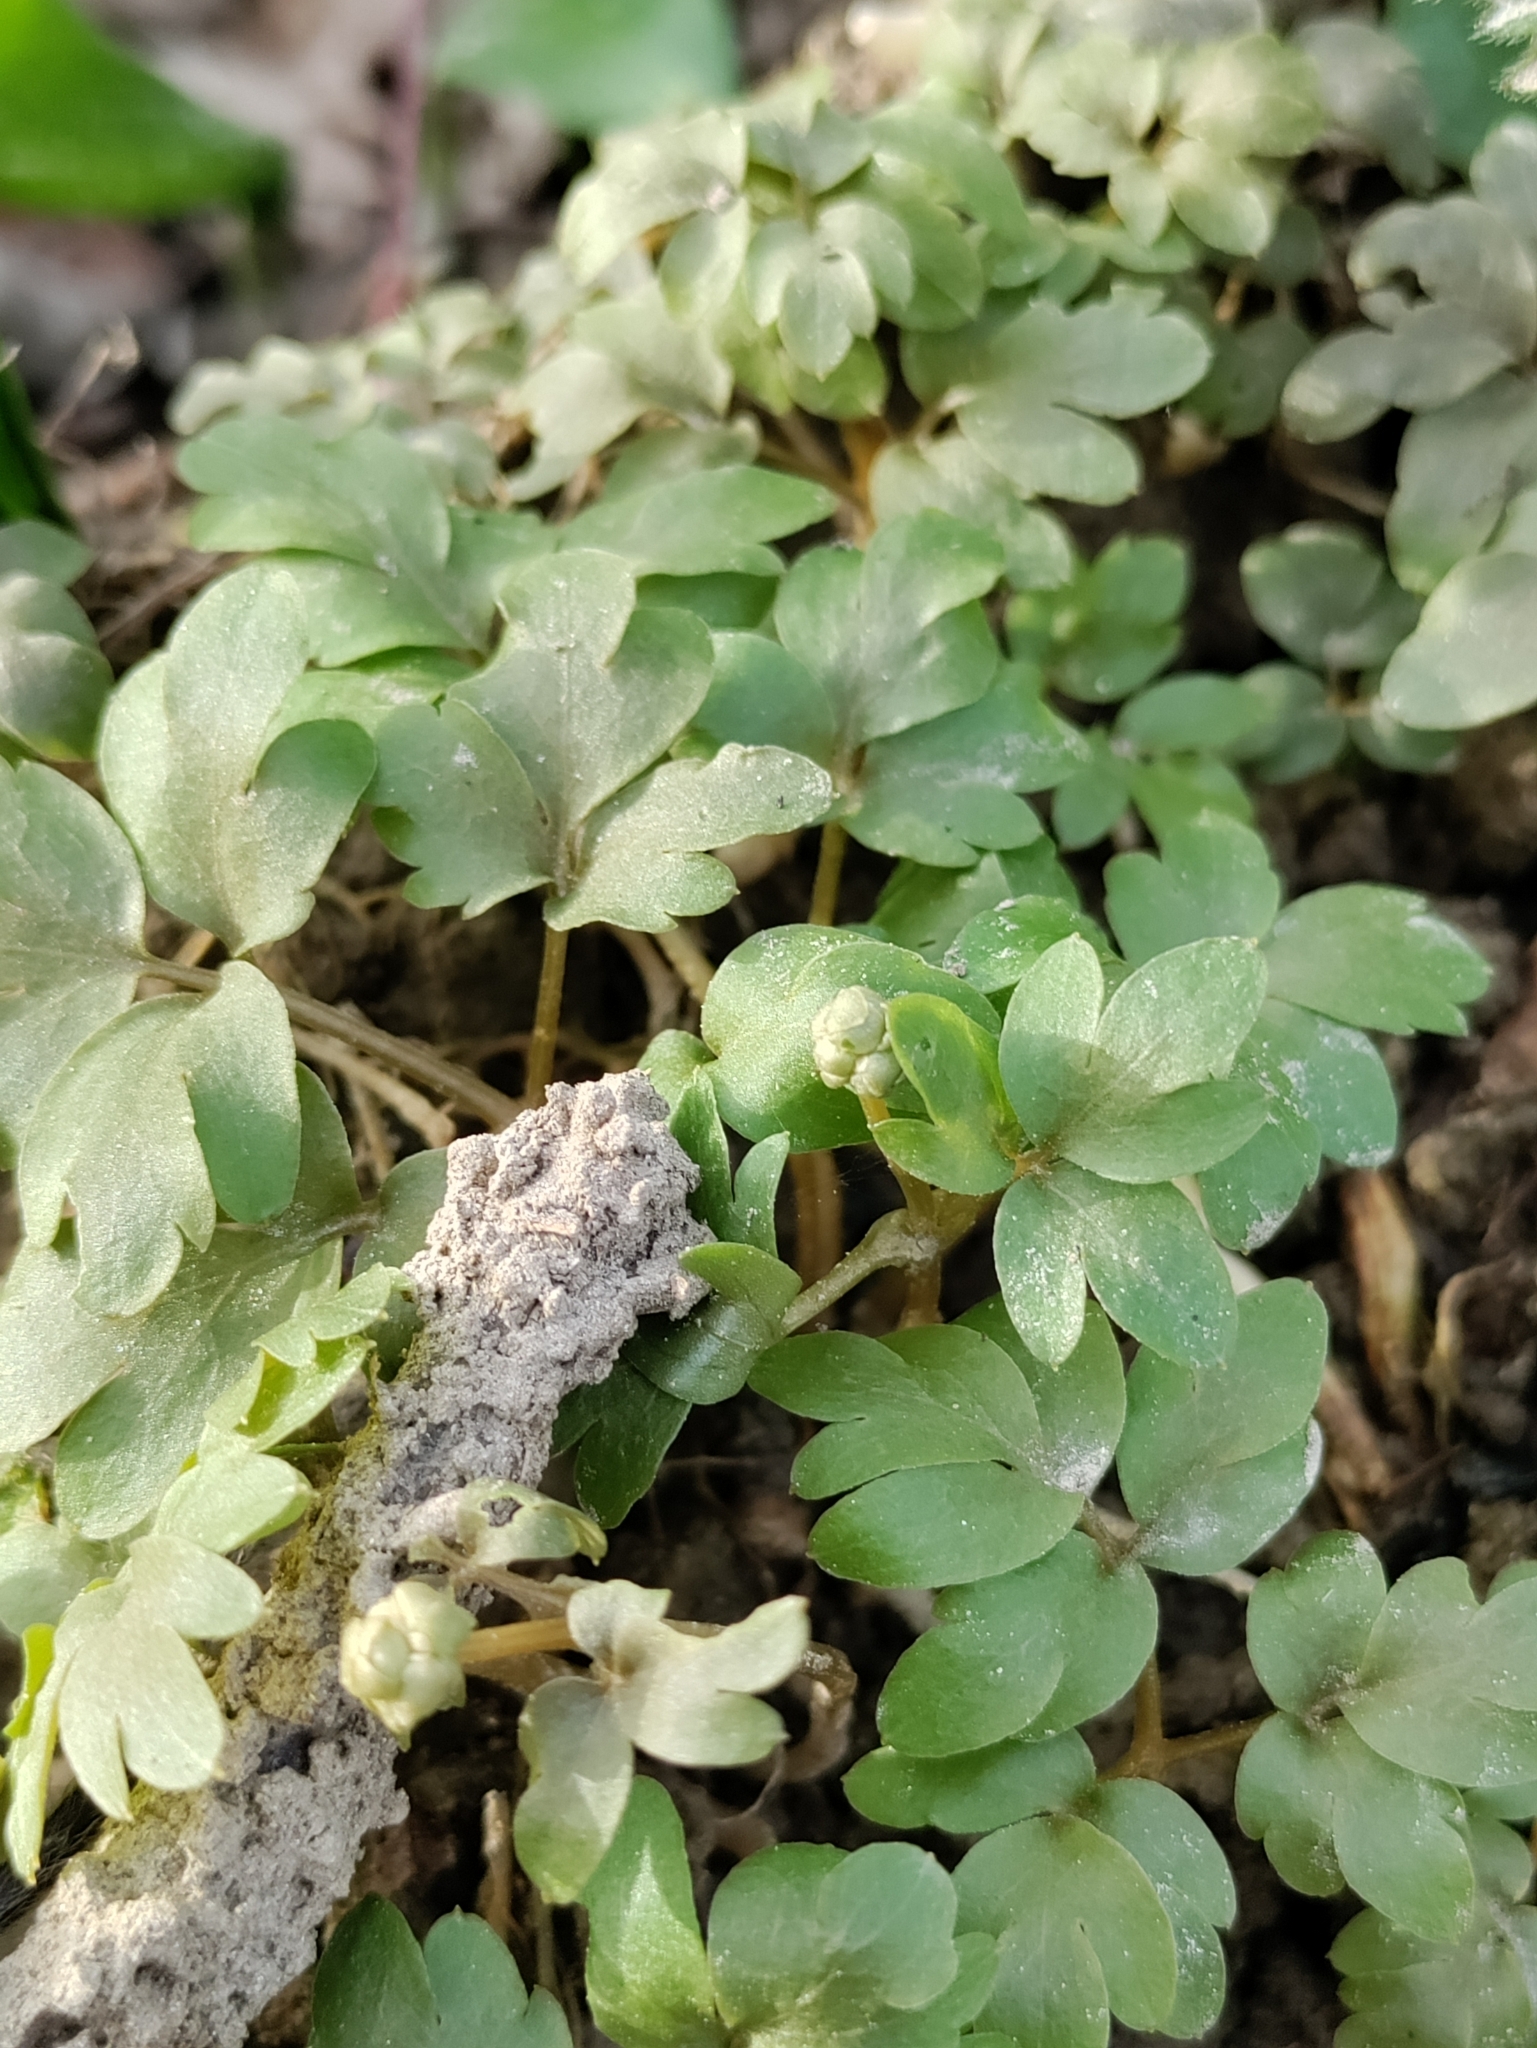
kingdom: Plantae
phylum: Tracheophyta
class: Magnoliopsida
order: Dipsacales
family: Viburnaceae
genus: Adoxa
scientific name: Adoxa moschatellina
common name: Moschatel
